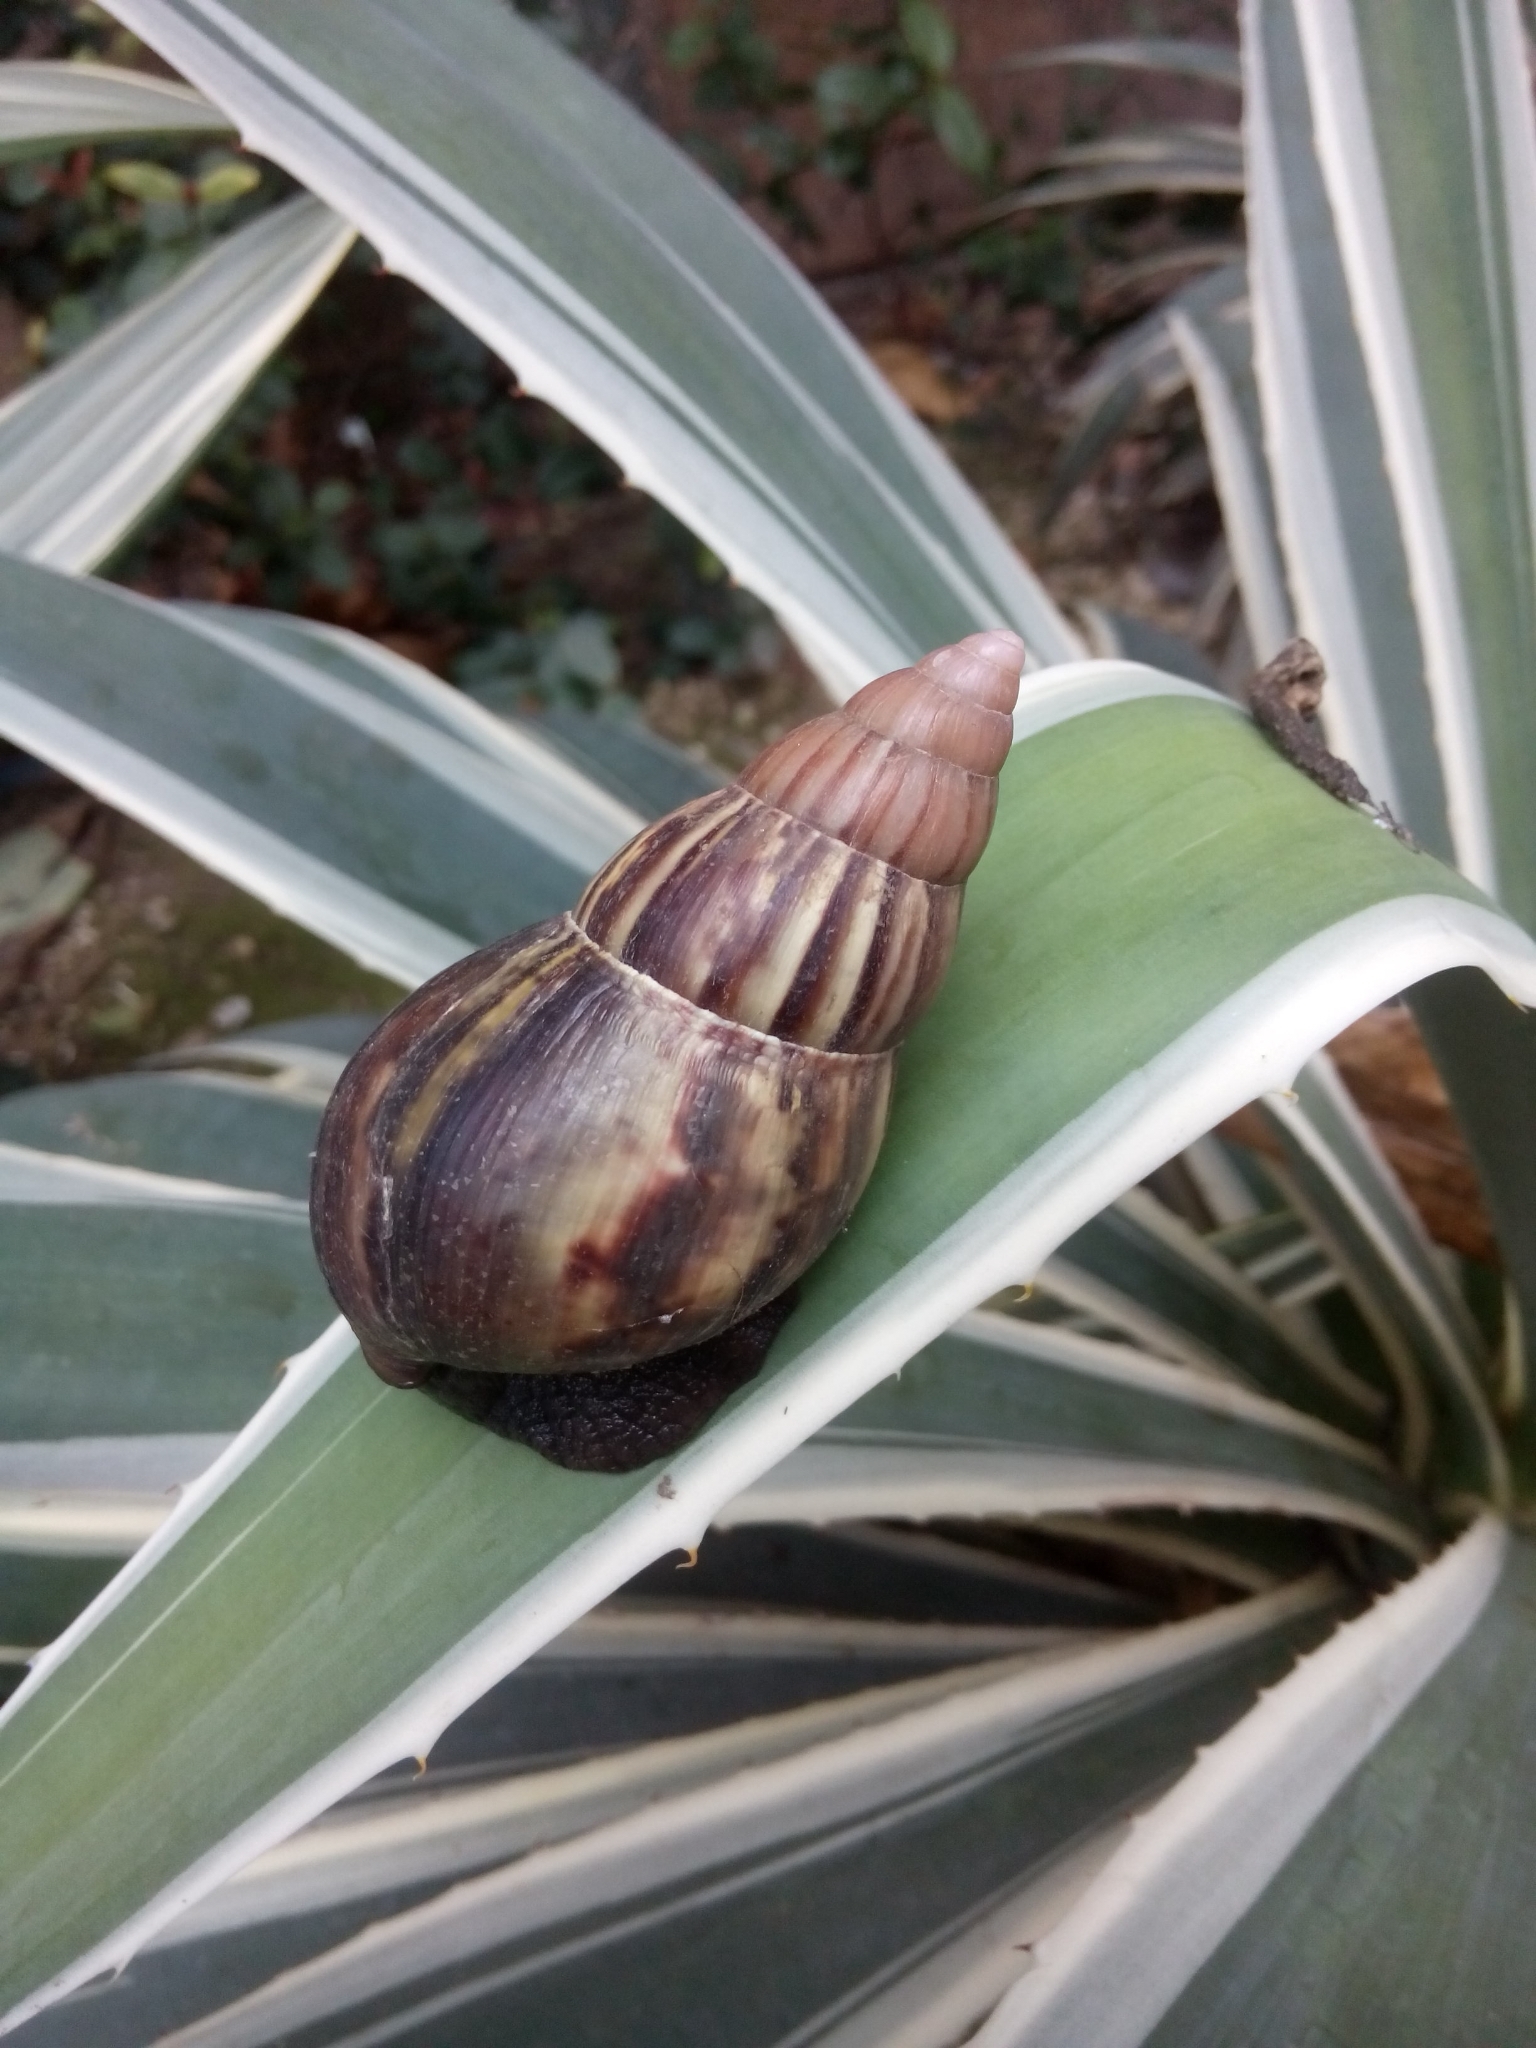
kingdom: Animalia
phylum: Mollusca
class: Gastropoda
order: Stylommatophora
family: Achatinidae
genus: Lissachatina
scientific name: Lissachatina fulica
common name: Giant african snail
